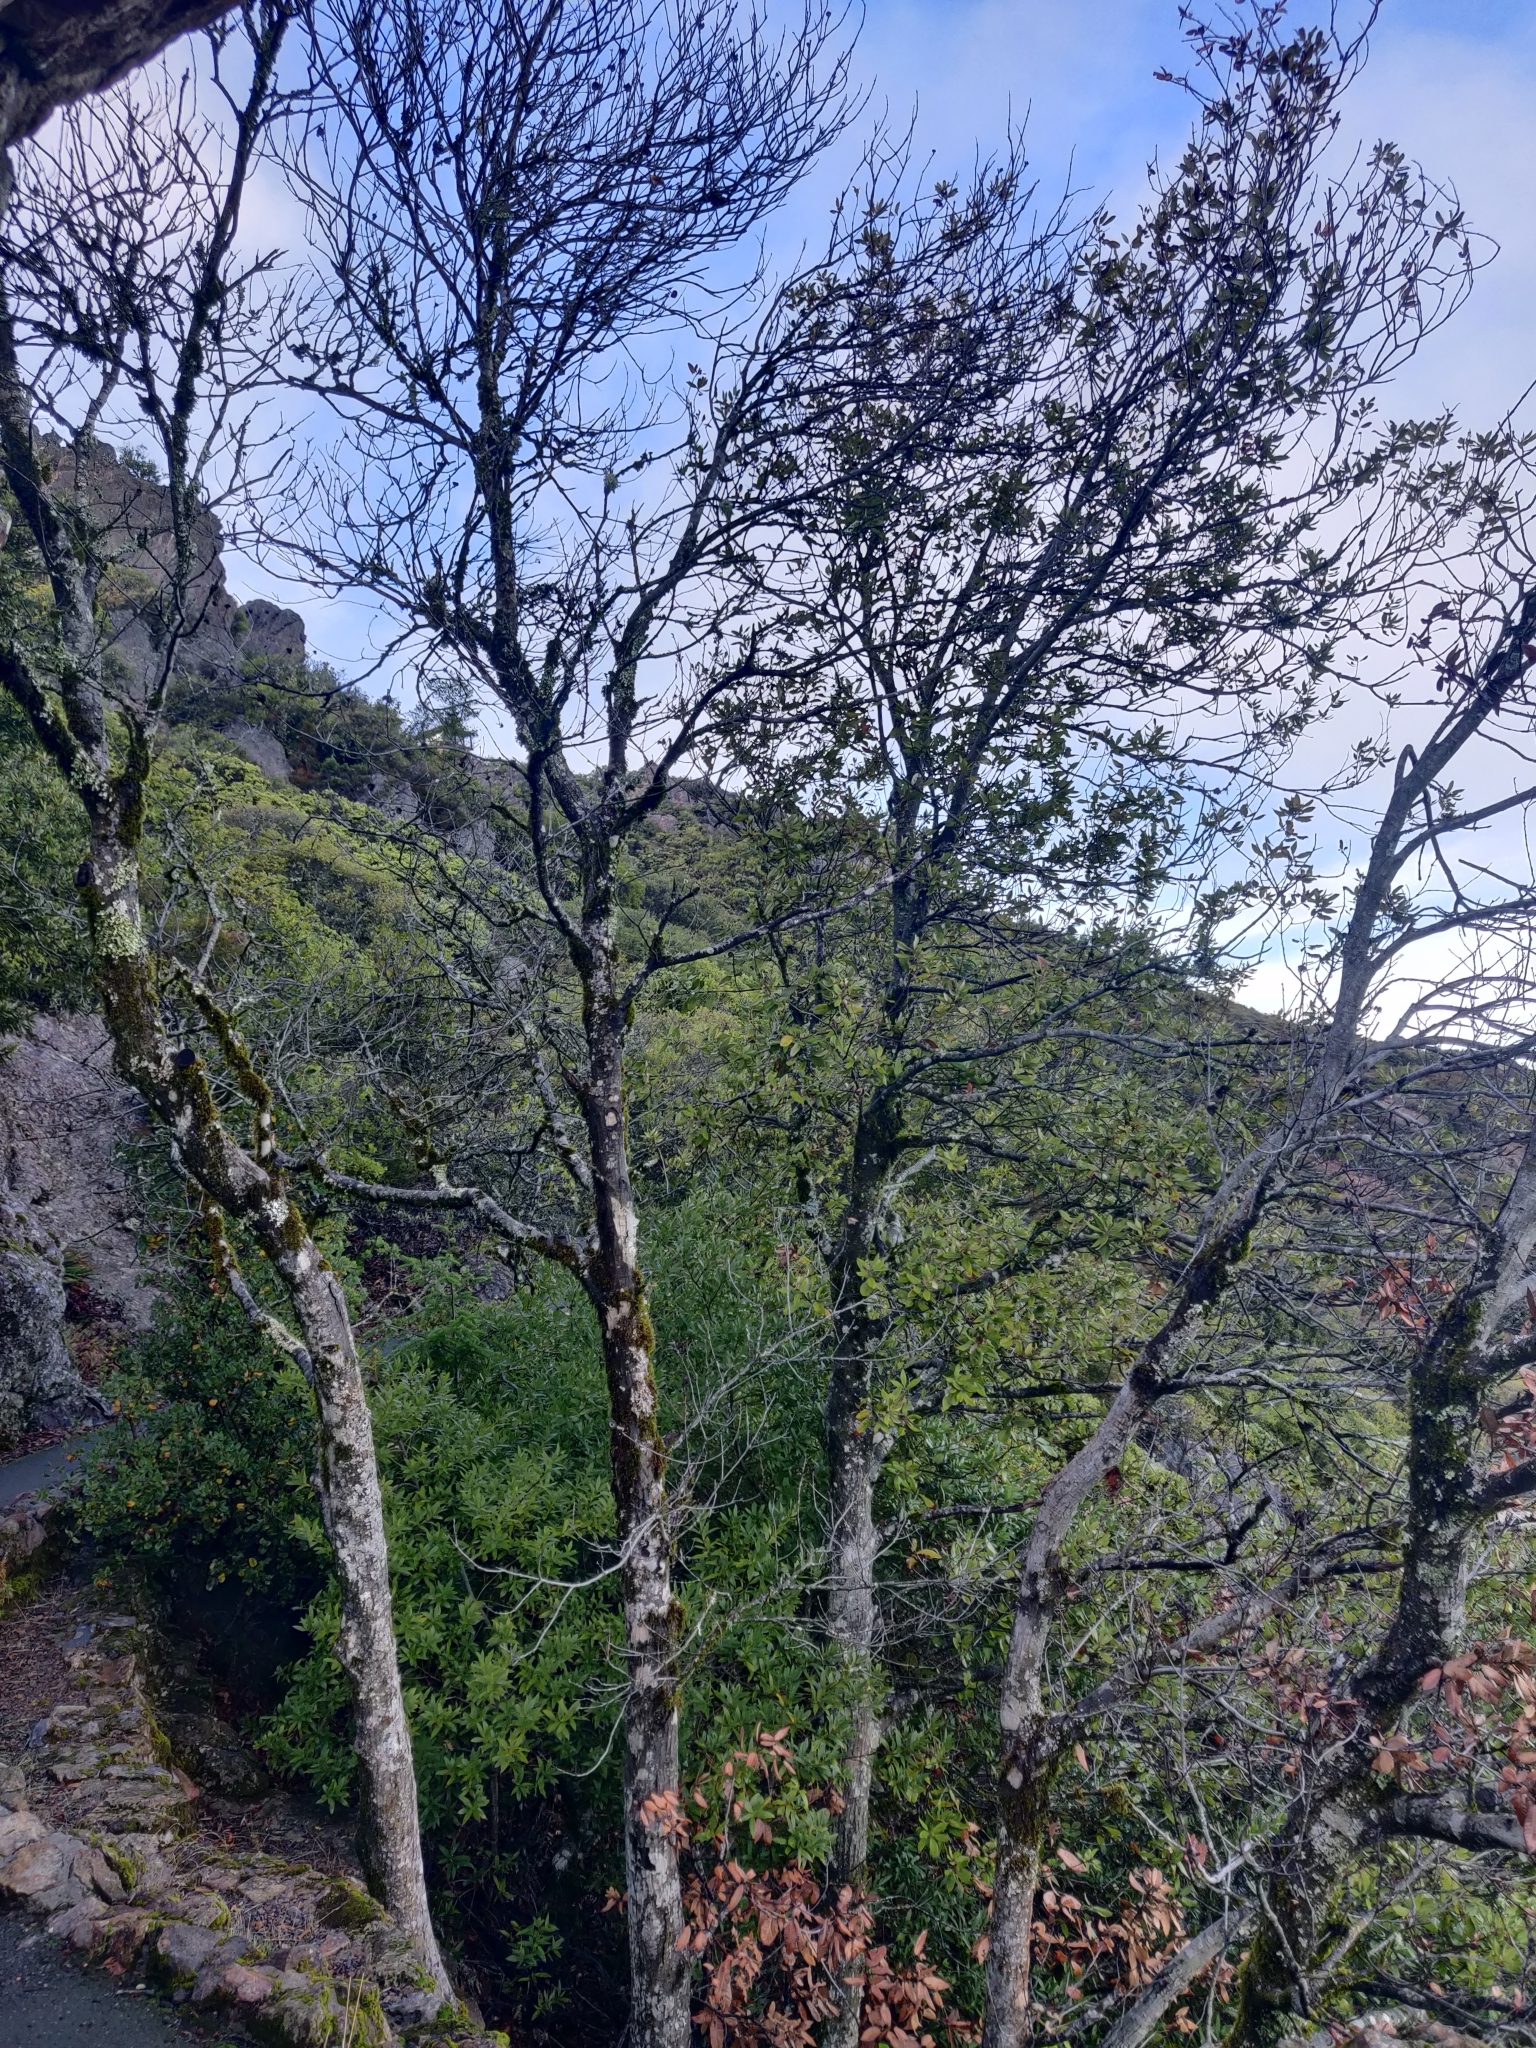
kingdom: Plantae
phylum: Tracheophyta
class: Magnoliopsida
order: Fagales
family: Fagaceae
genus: Notholithocarpus
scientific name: Notholithocarpus densiflorus
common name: Tan bark oak
